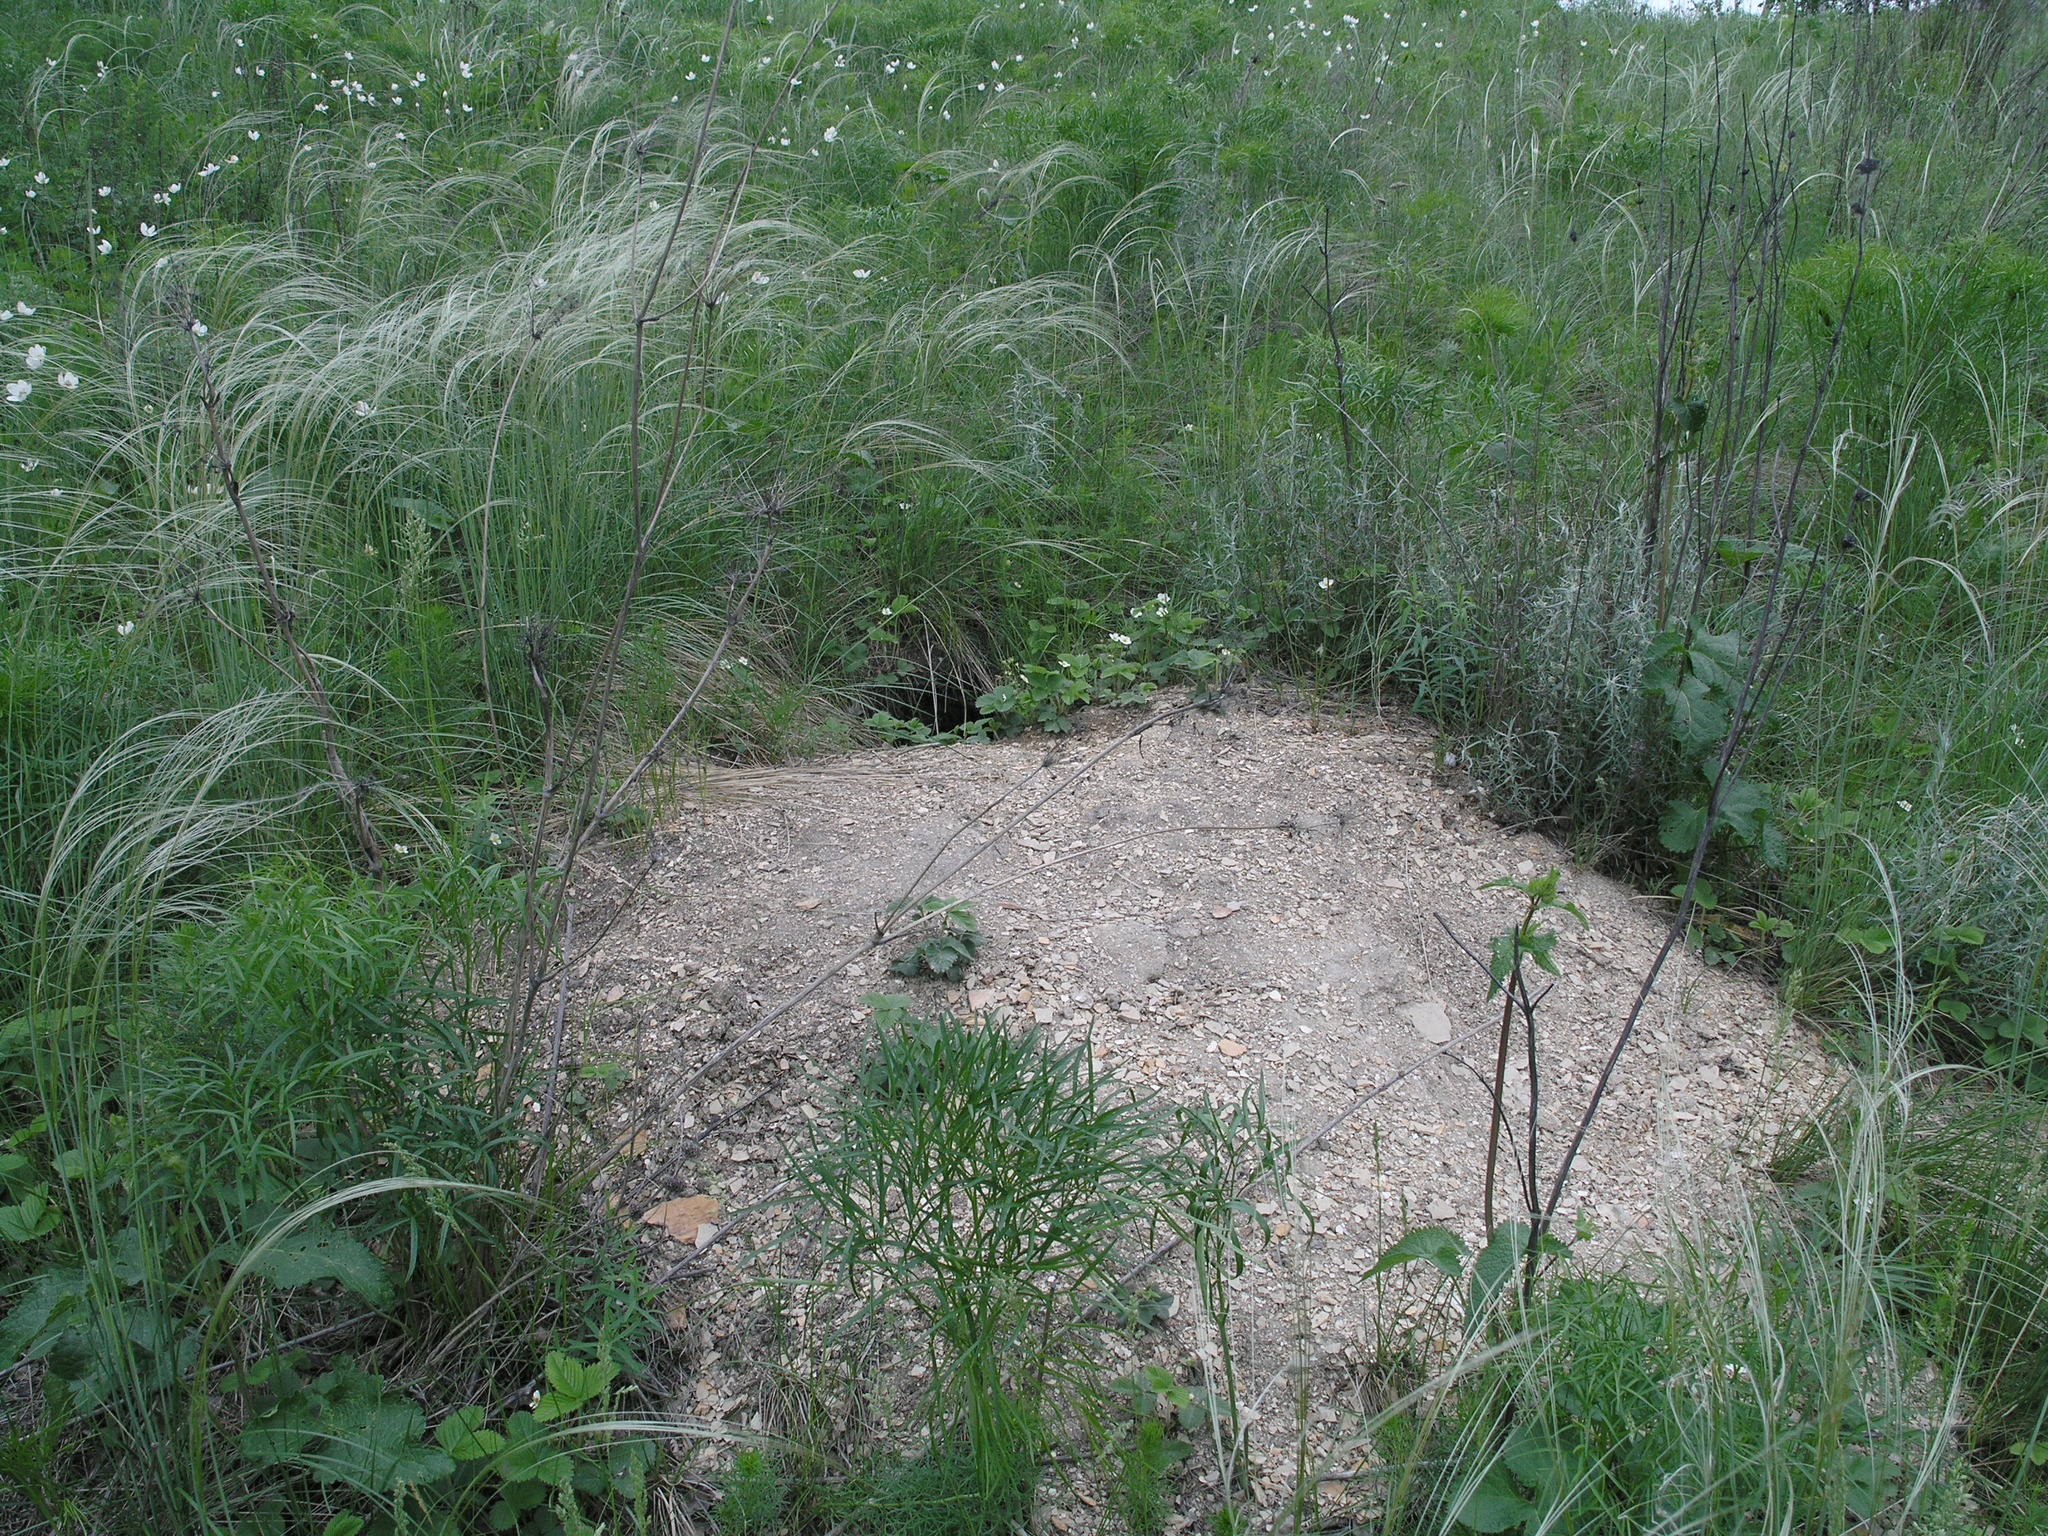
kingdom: Animalia
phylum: Chordata
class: Mammalia
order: Rodentia
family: Sciuridae
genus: Marmota
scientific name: Marmota kastschenkoi
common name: Forest steppe marmot
